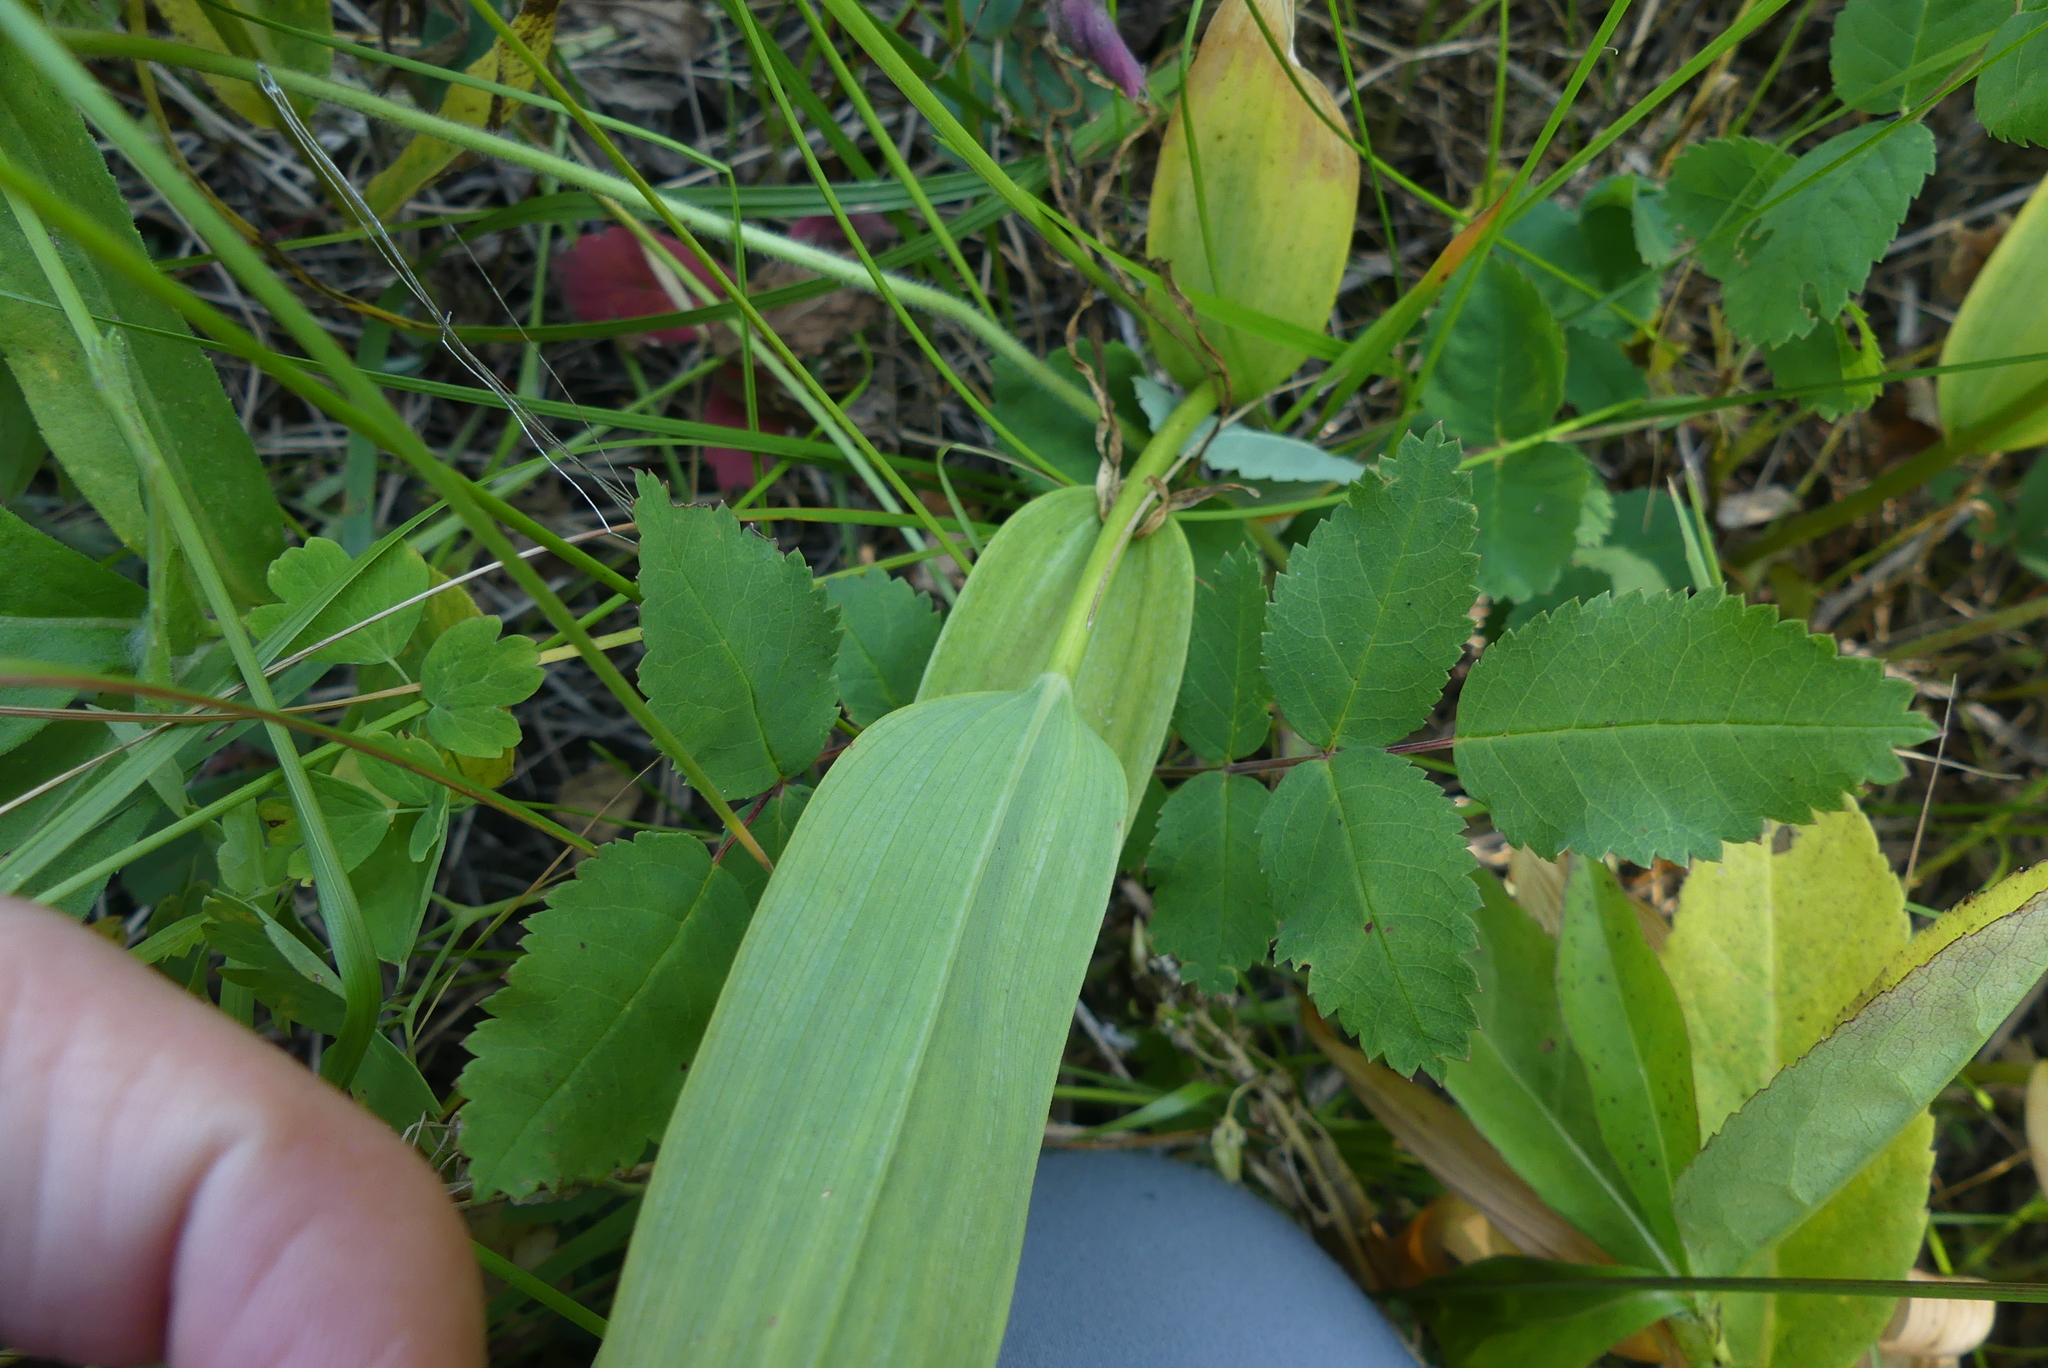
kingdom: Plantae
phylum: Tracheophyta
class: Liliopsida
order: Asparagales
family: Asparagaceae
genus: Maianthemum
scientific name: Maianthemum stellatum
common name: Little false solomon's seal
